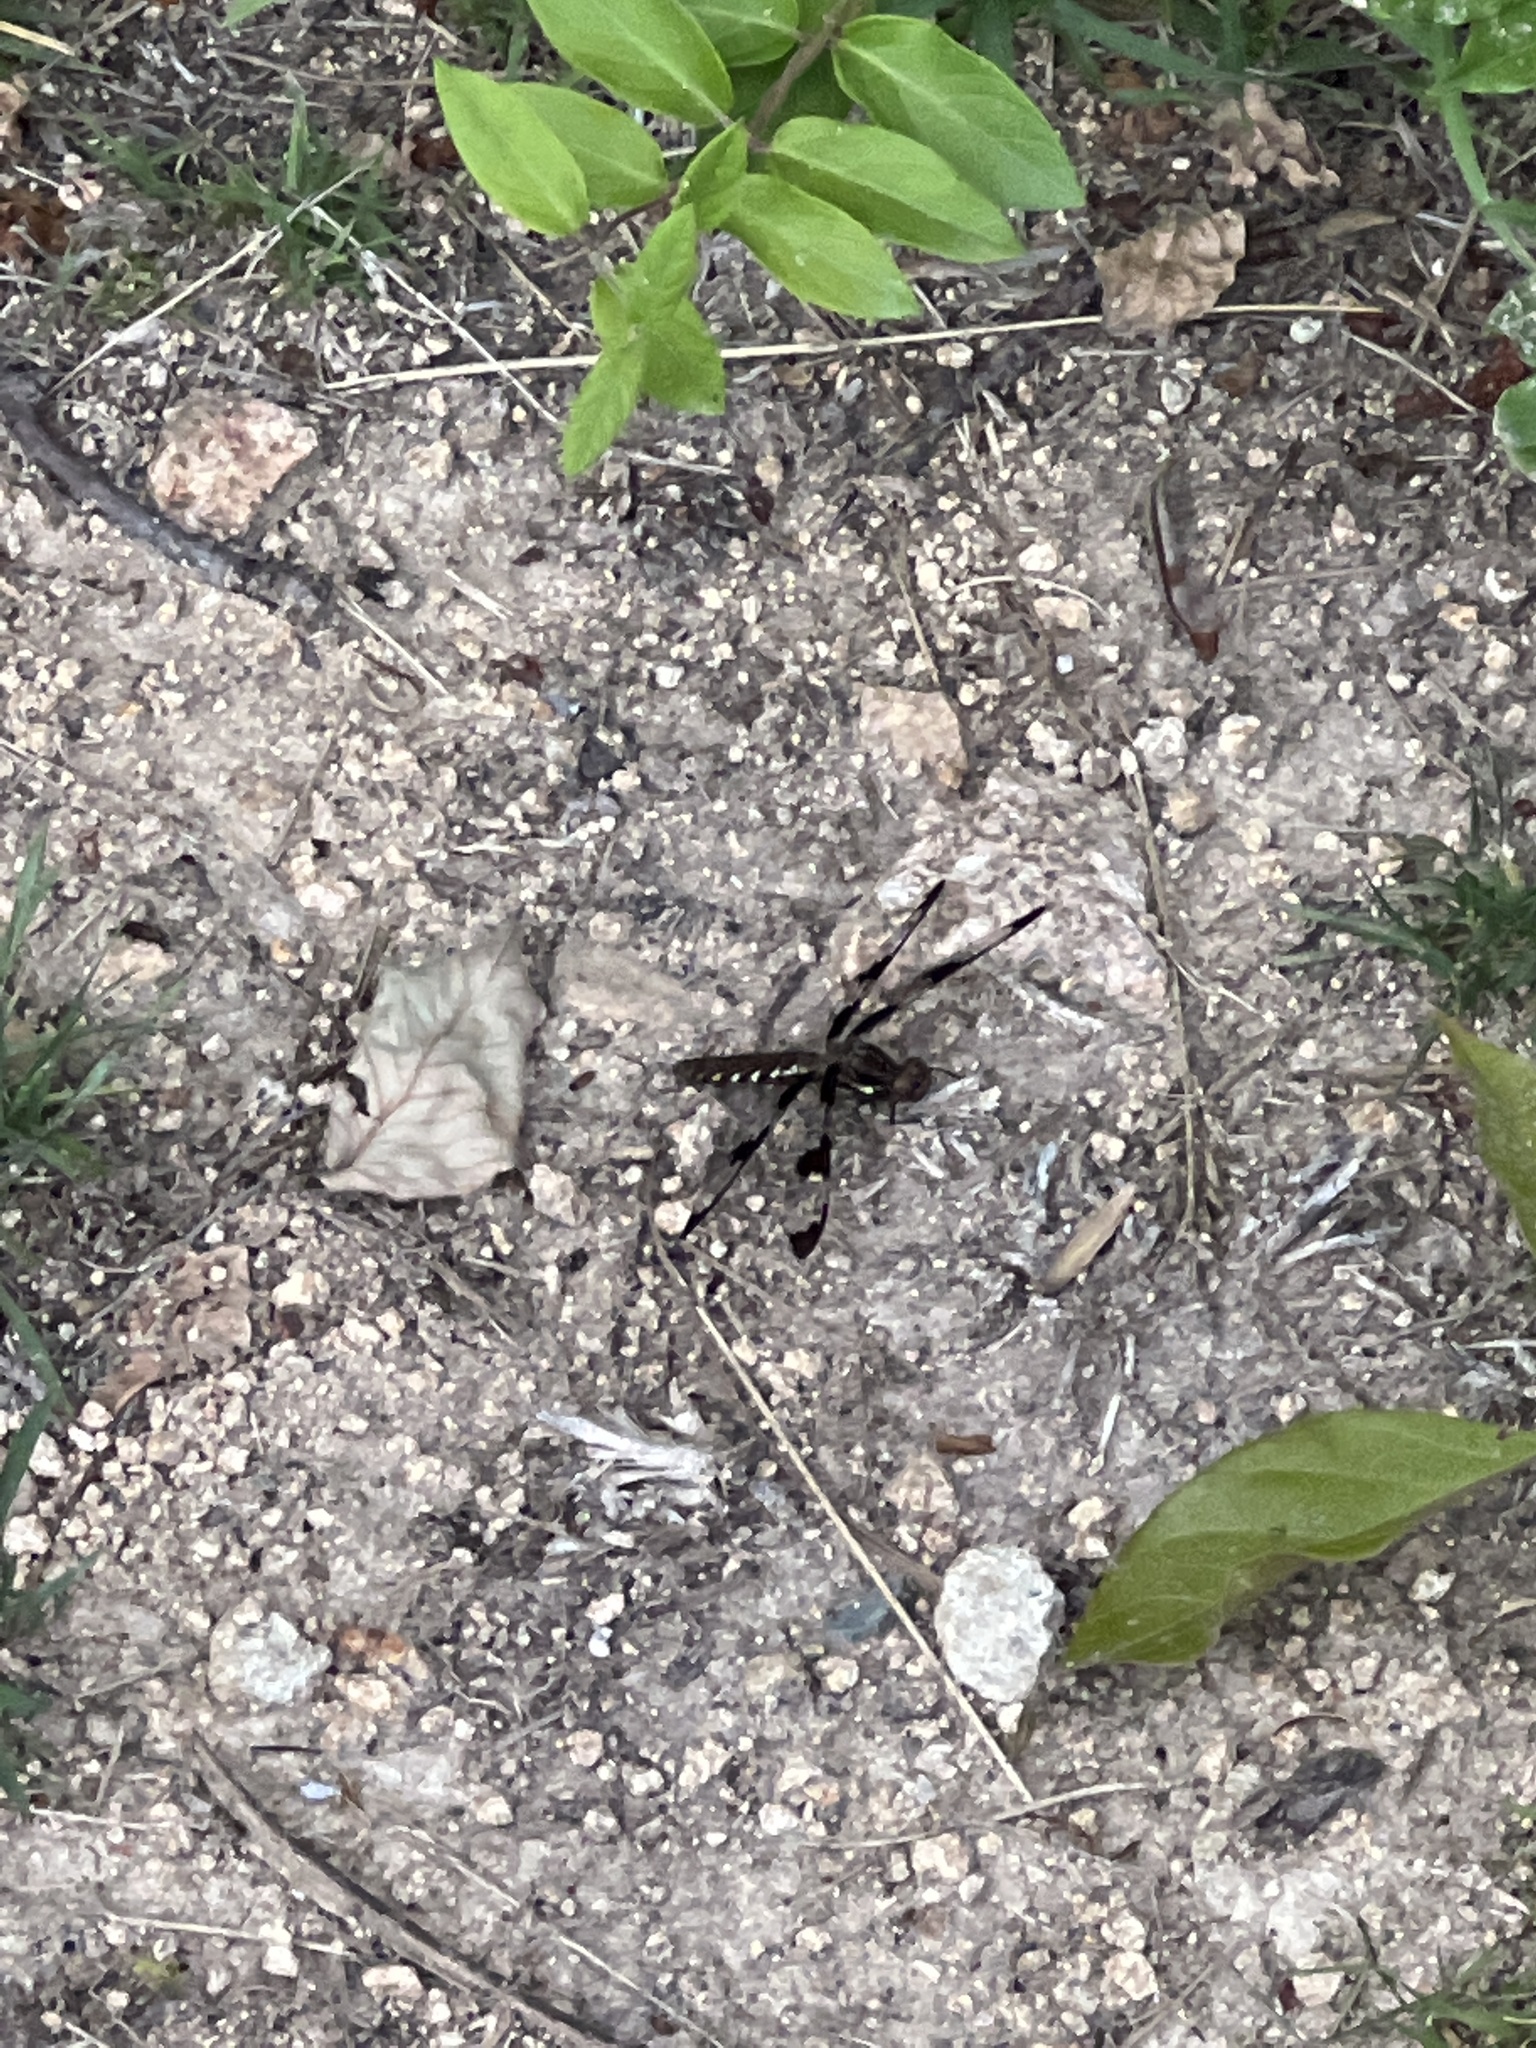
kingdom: Animalia
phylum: Arthropoda
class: Insecta
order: Odonata
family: Libellulidae
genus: Plathemis
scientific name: Plathemis lydia
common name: Common whitetail
